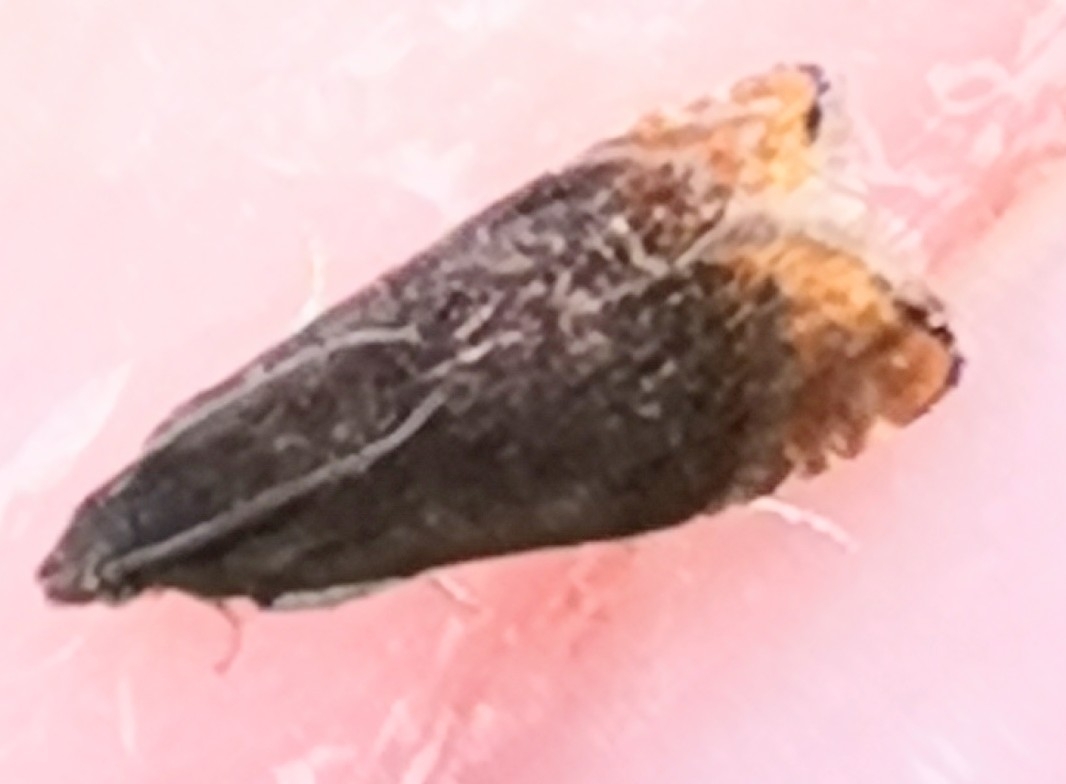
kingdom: Animalia
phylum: Arthropoda
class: Insecta
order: Lepidoptera
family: Tortricidae
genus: Pammene
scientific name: Pammene rhediella
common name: Fruitlet-mining tortrix
